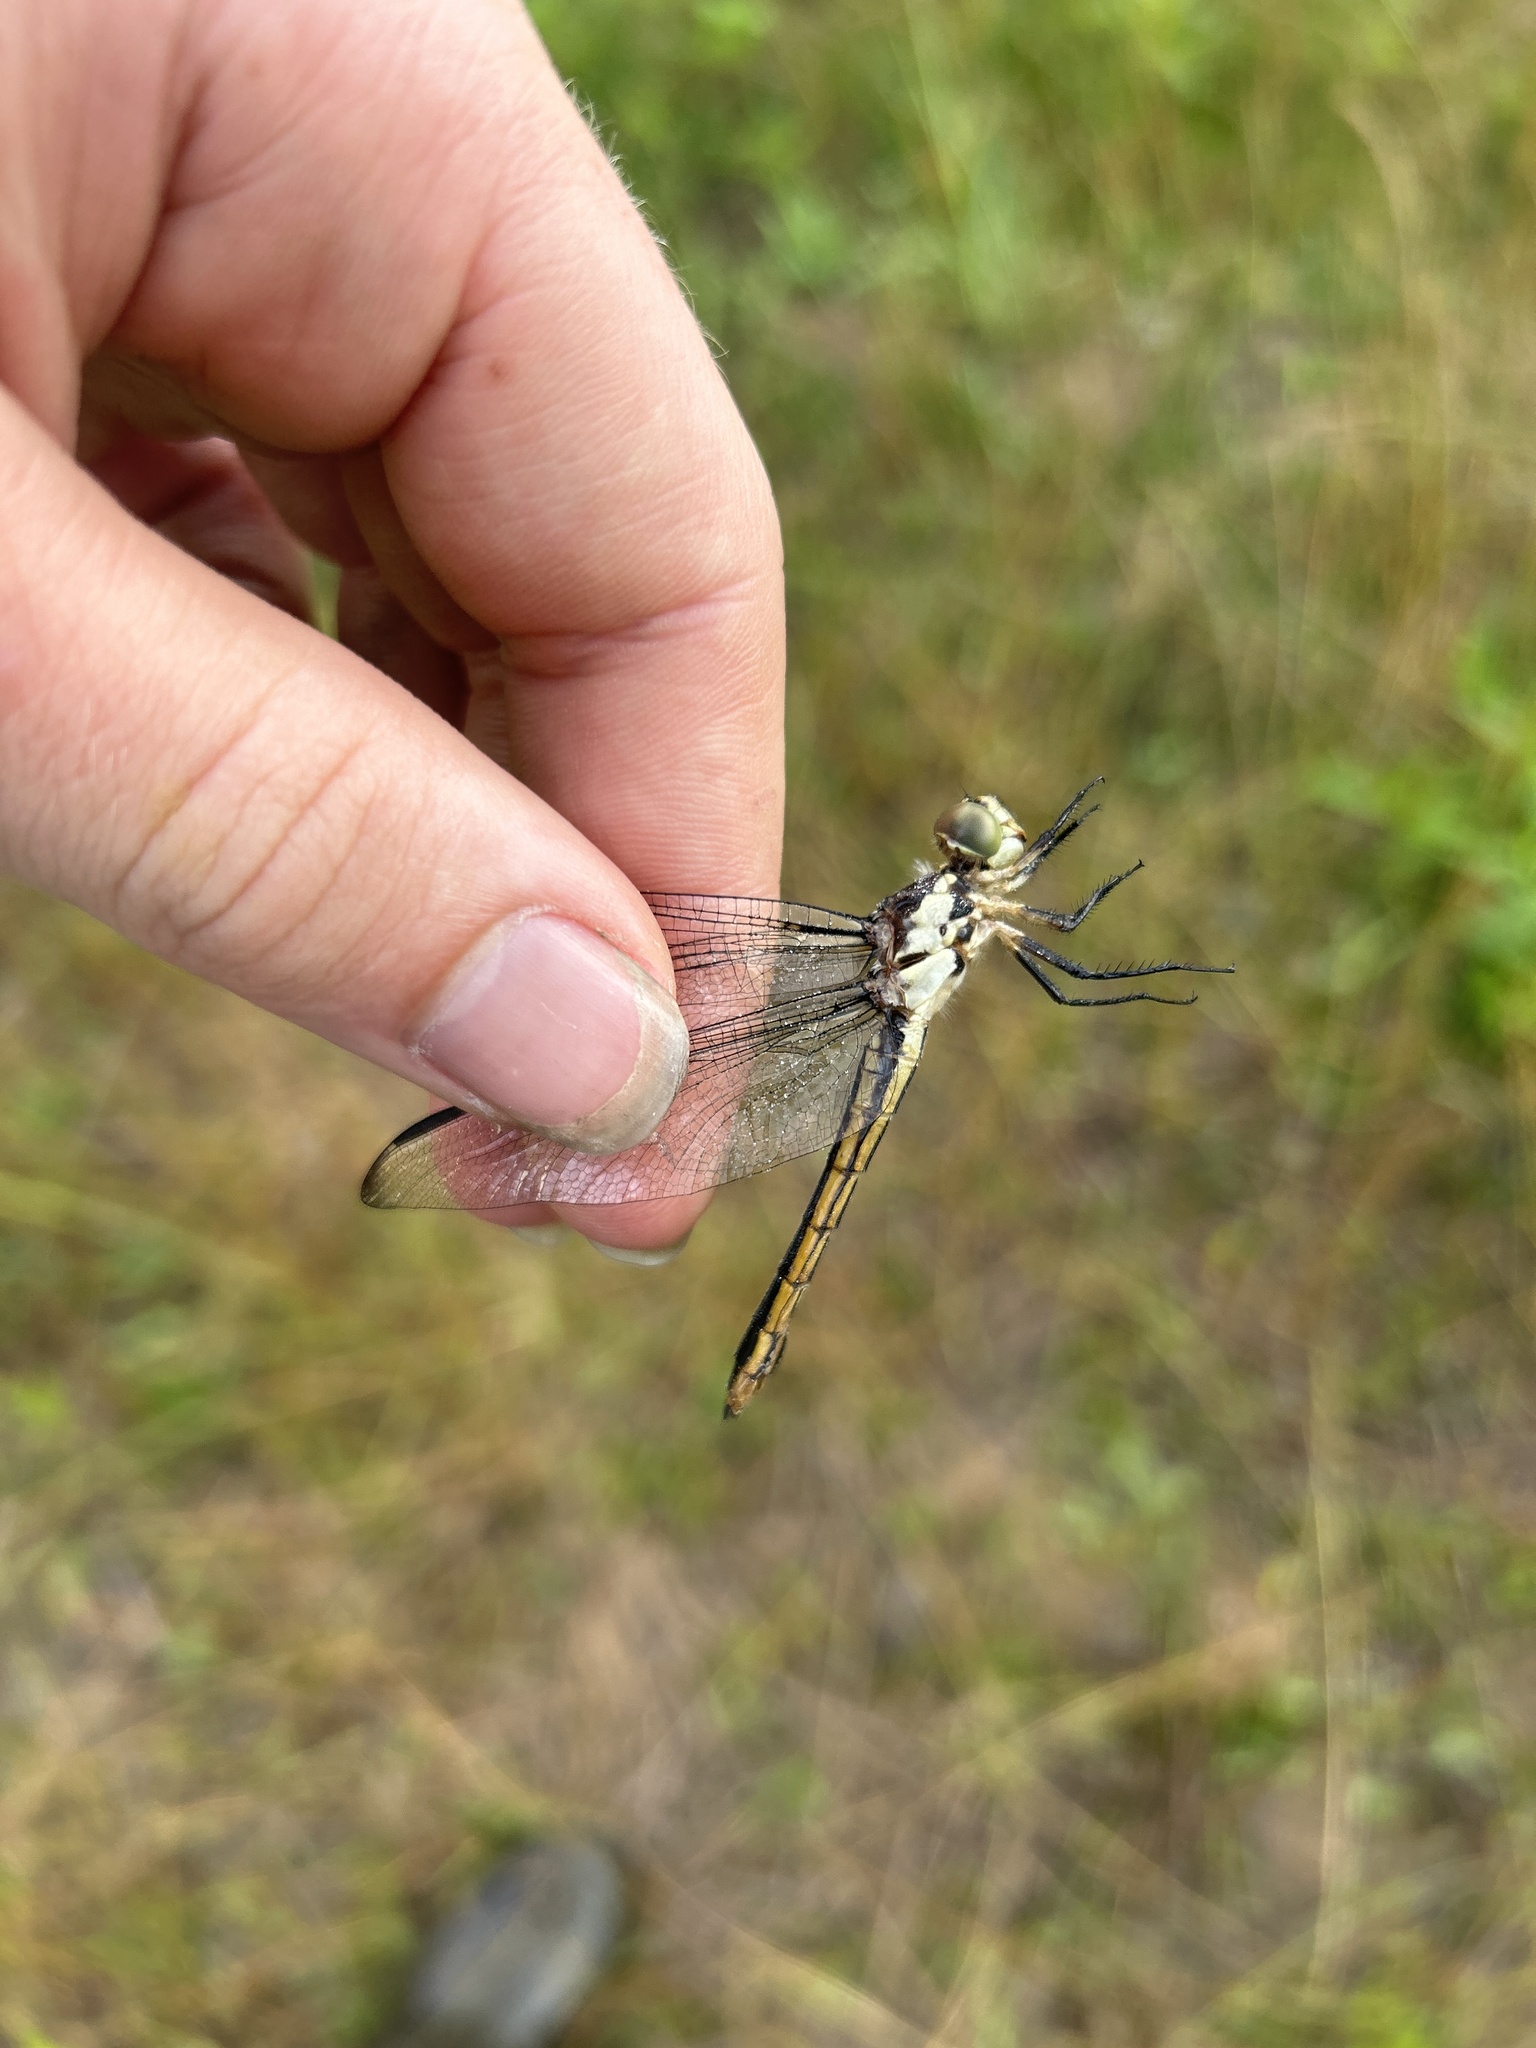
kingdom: Animalia
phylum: Arthropoda
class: Insecta
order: Odonata
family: Libellulidae
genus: Libellula
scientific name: Libellula incesta
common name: Slaty skimmer
